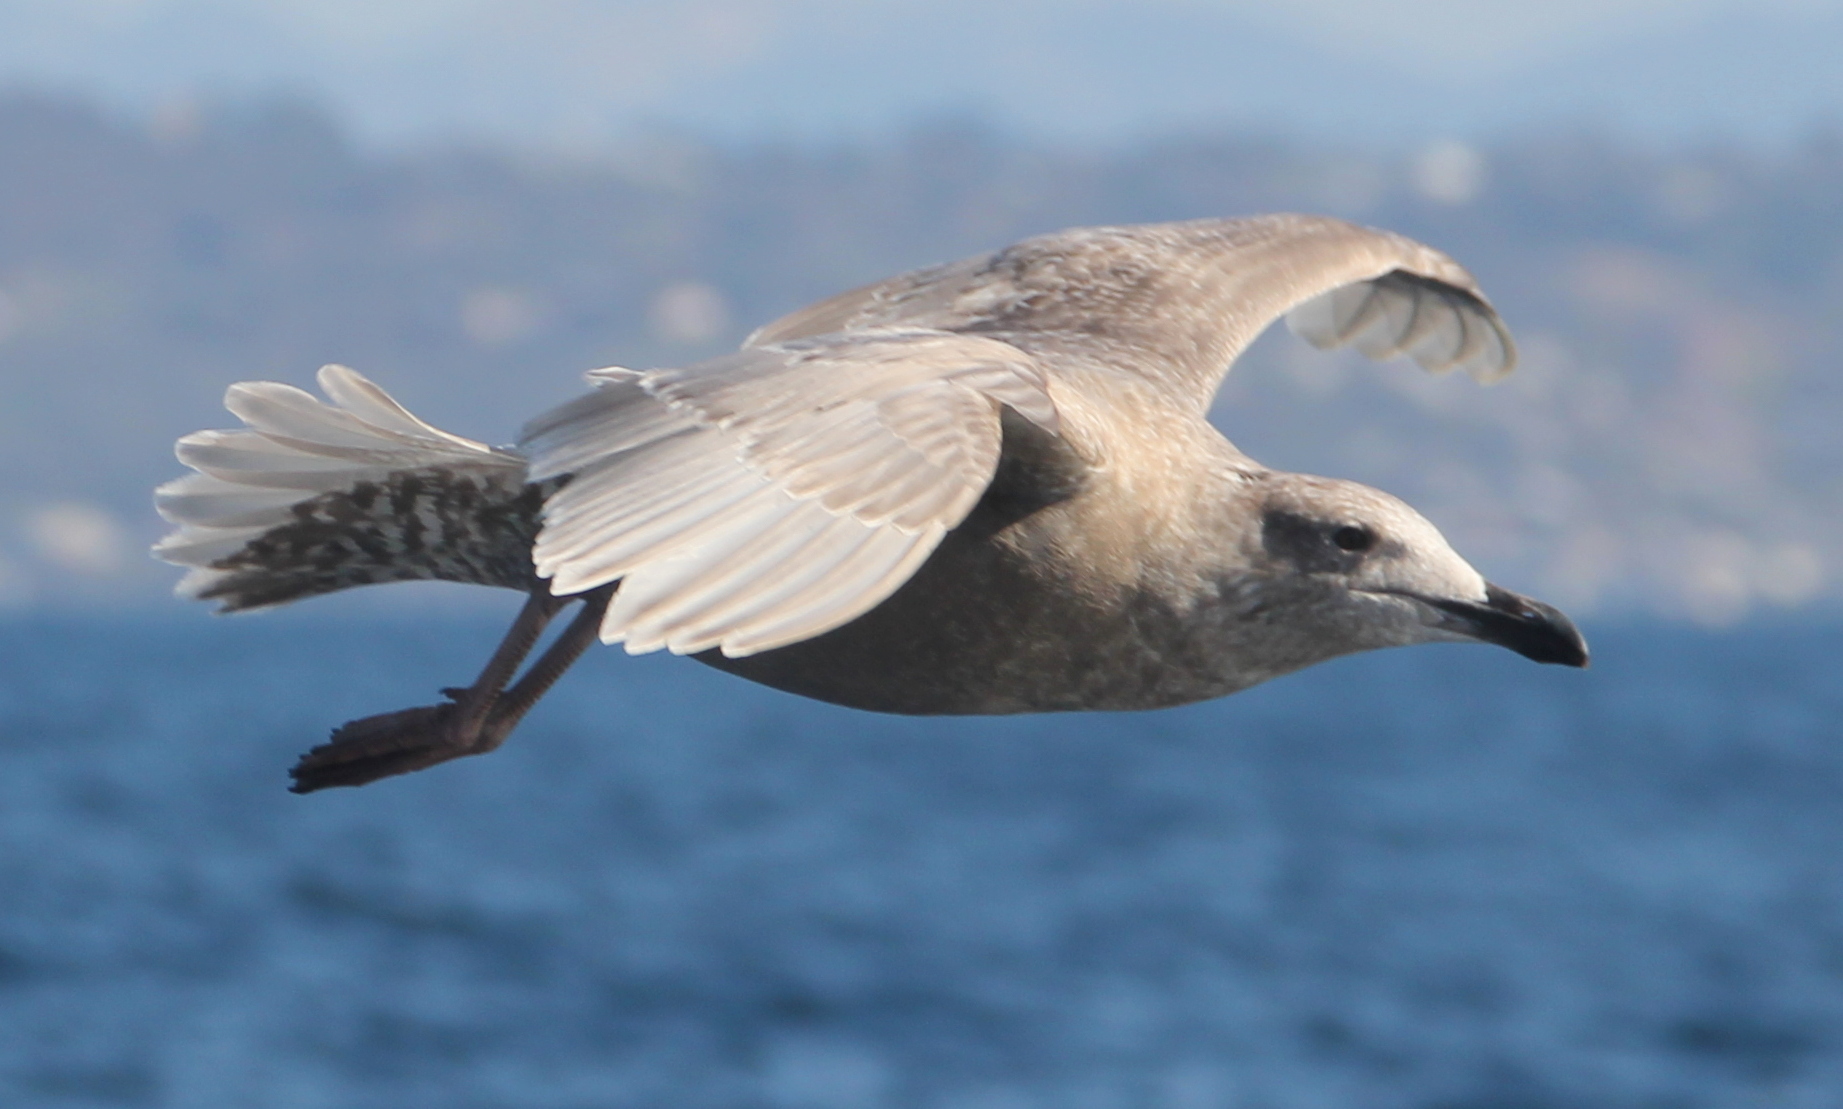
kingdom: Animalia
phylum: Chordata
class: Aves
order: Charadriiformes
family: Laridae
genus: Larus
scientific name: Larus glaucescens
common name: Glaucous-winged gull
